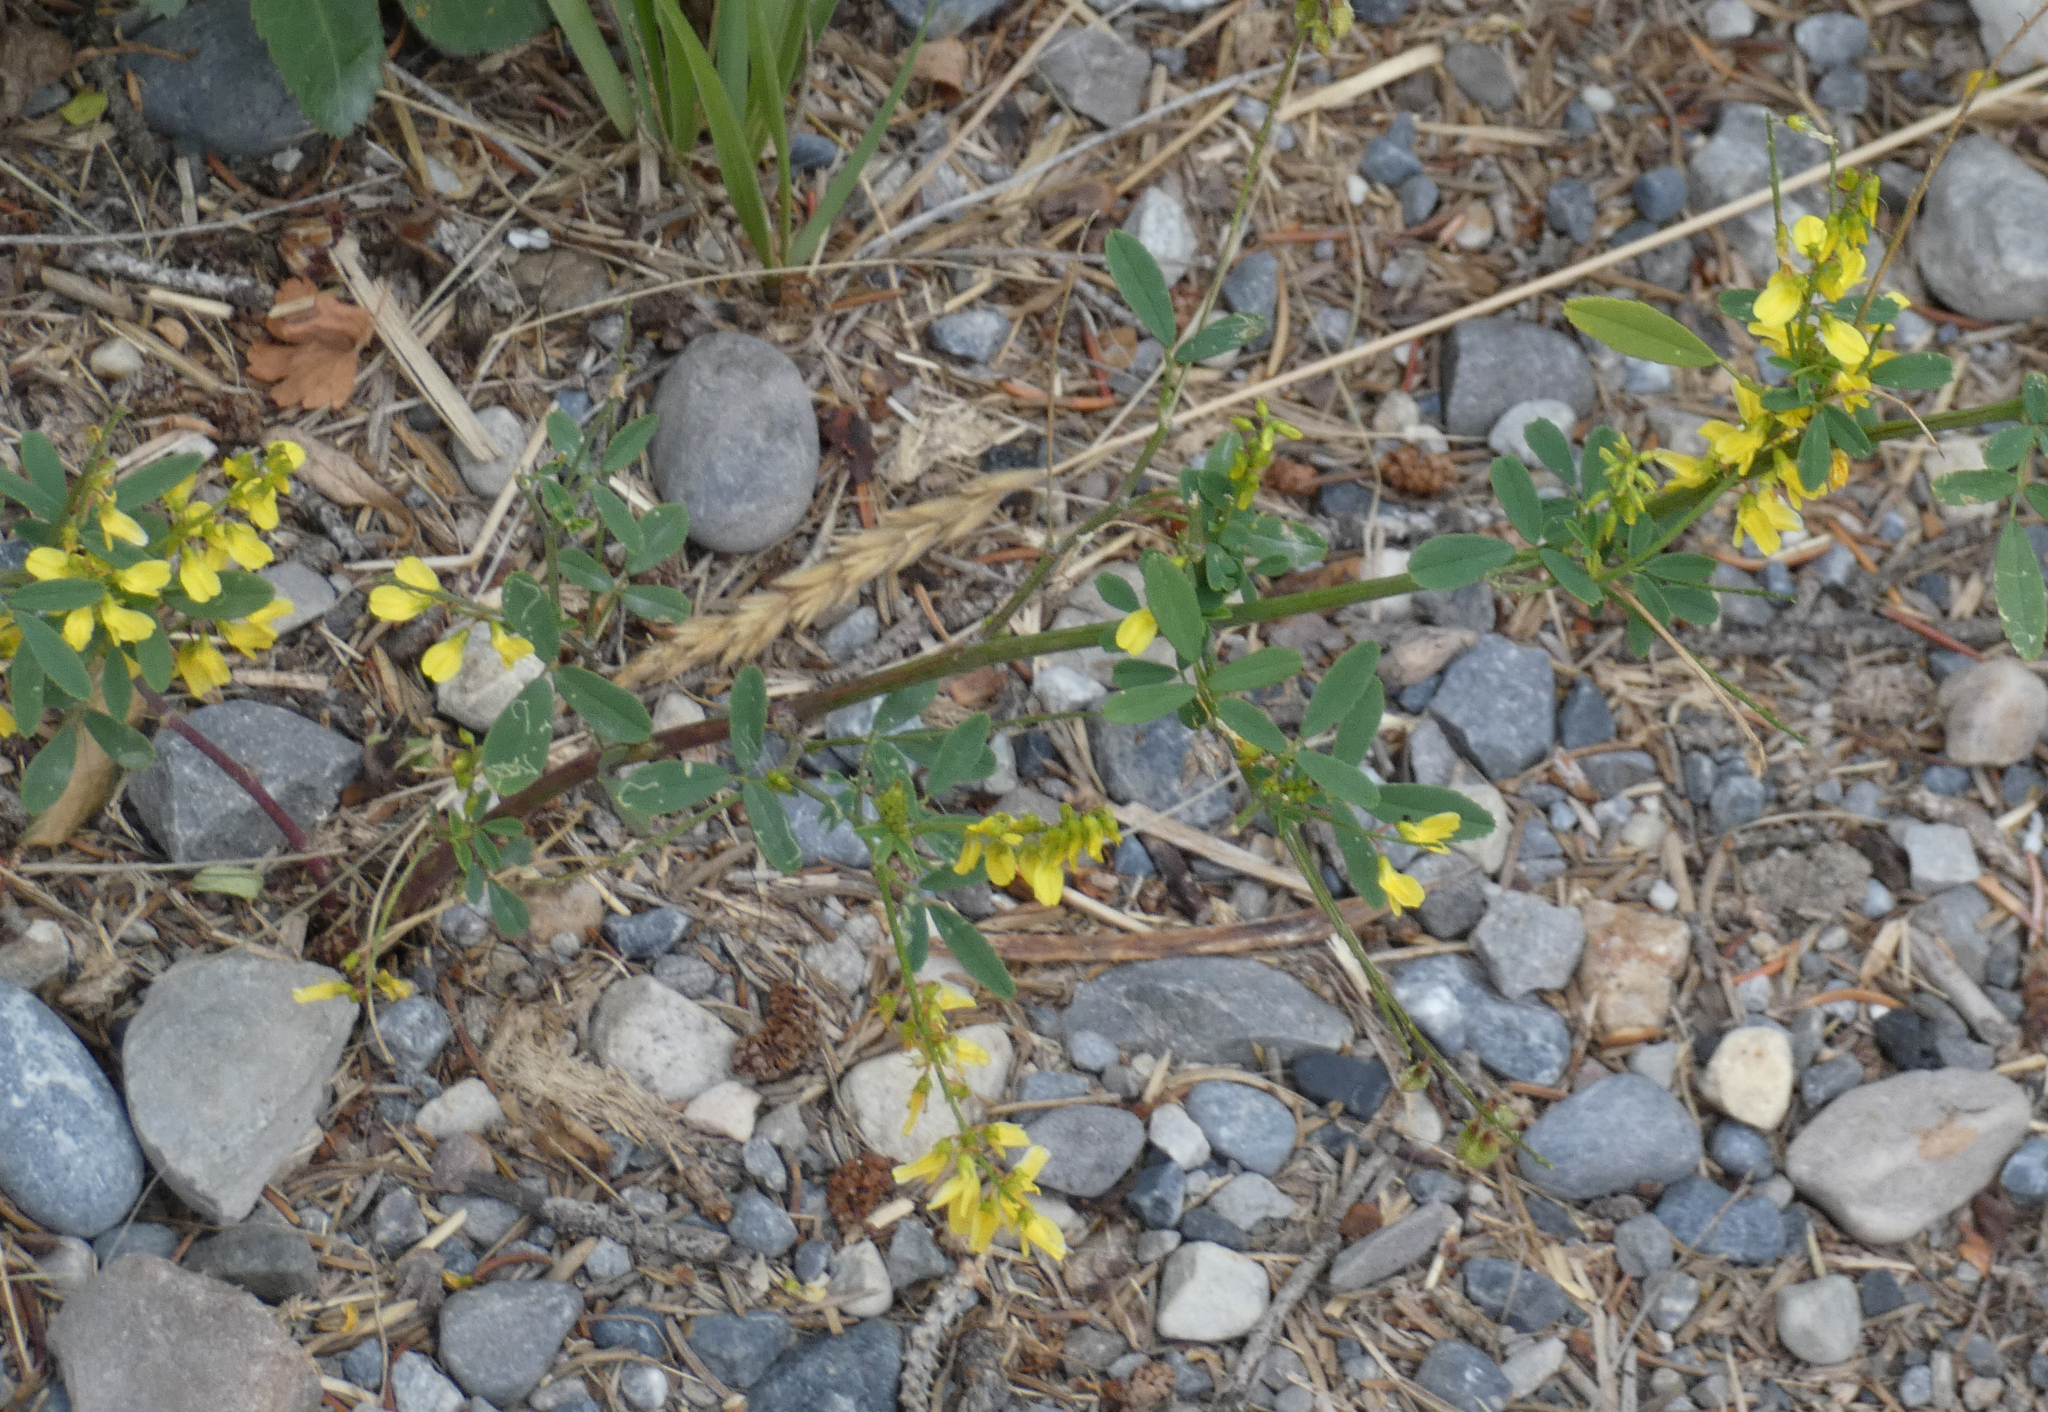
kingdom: Plantae
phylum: Tracheophyta
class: Magnoliopsida
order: Fabales
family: Fabaceae
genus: Melilotus
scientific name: Melilotus officinalis
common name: Sweetclover
